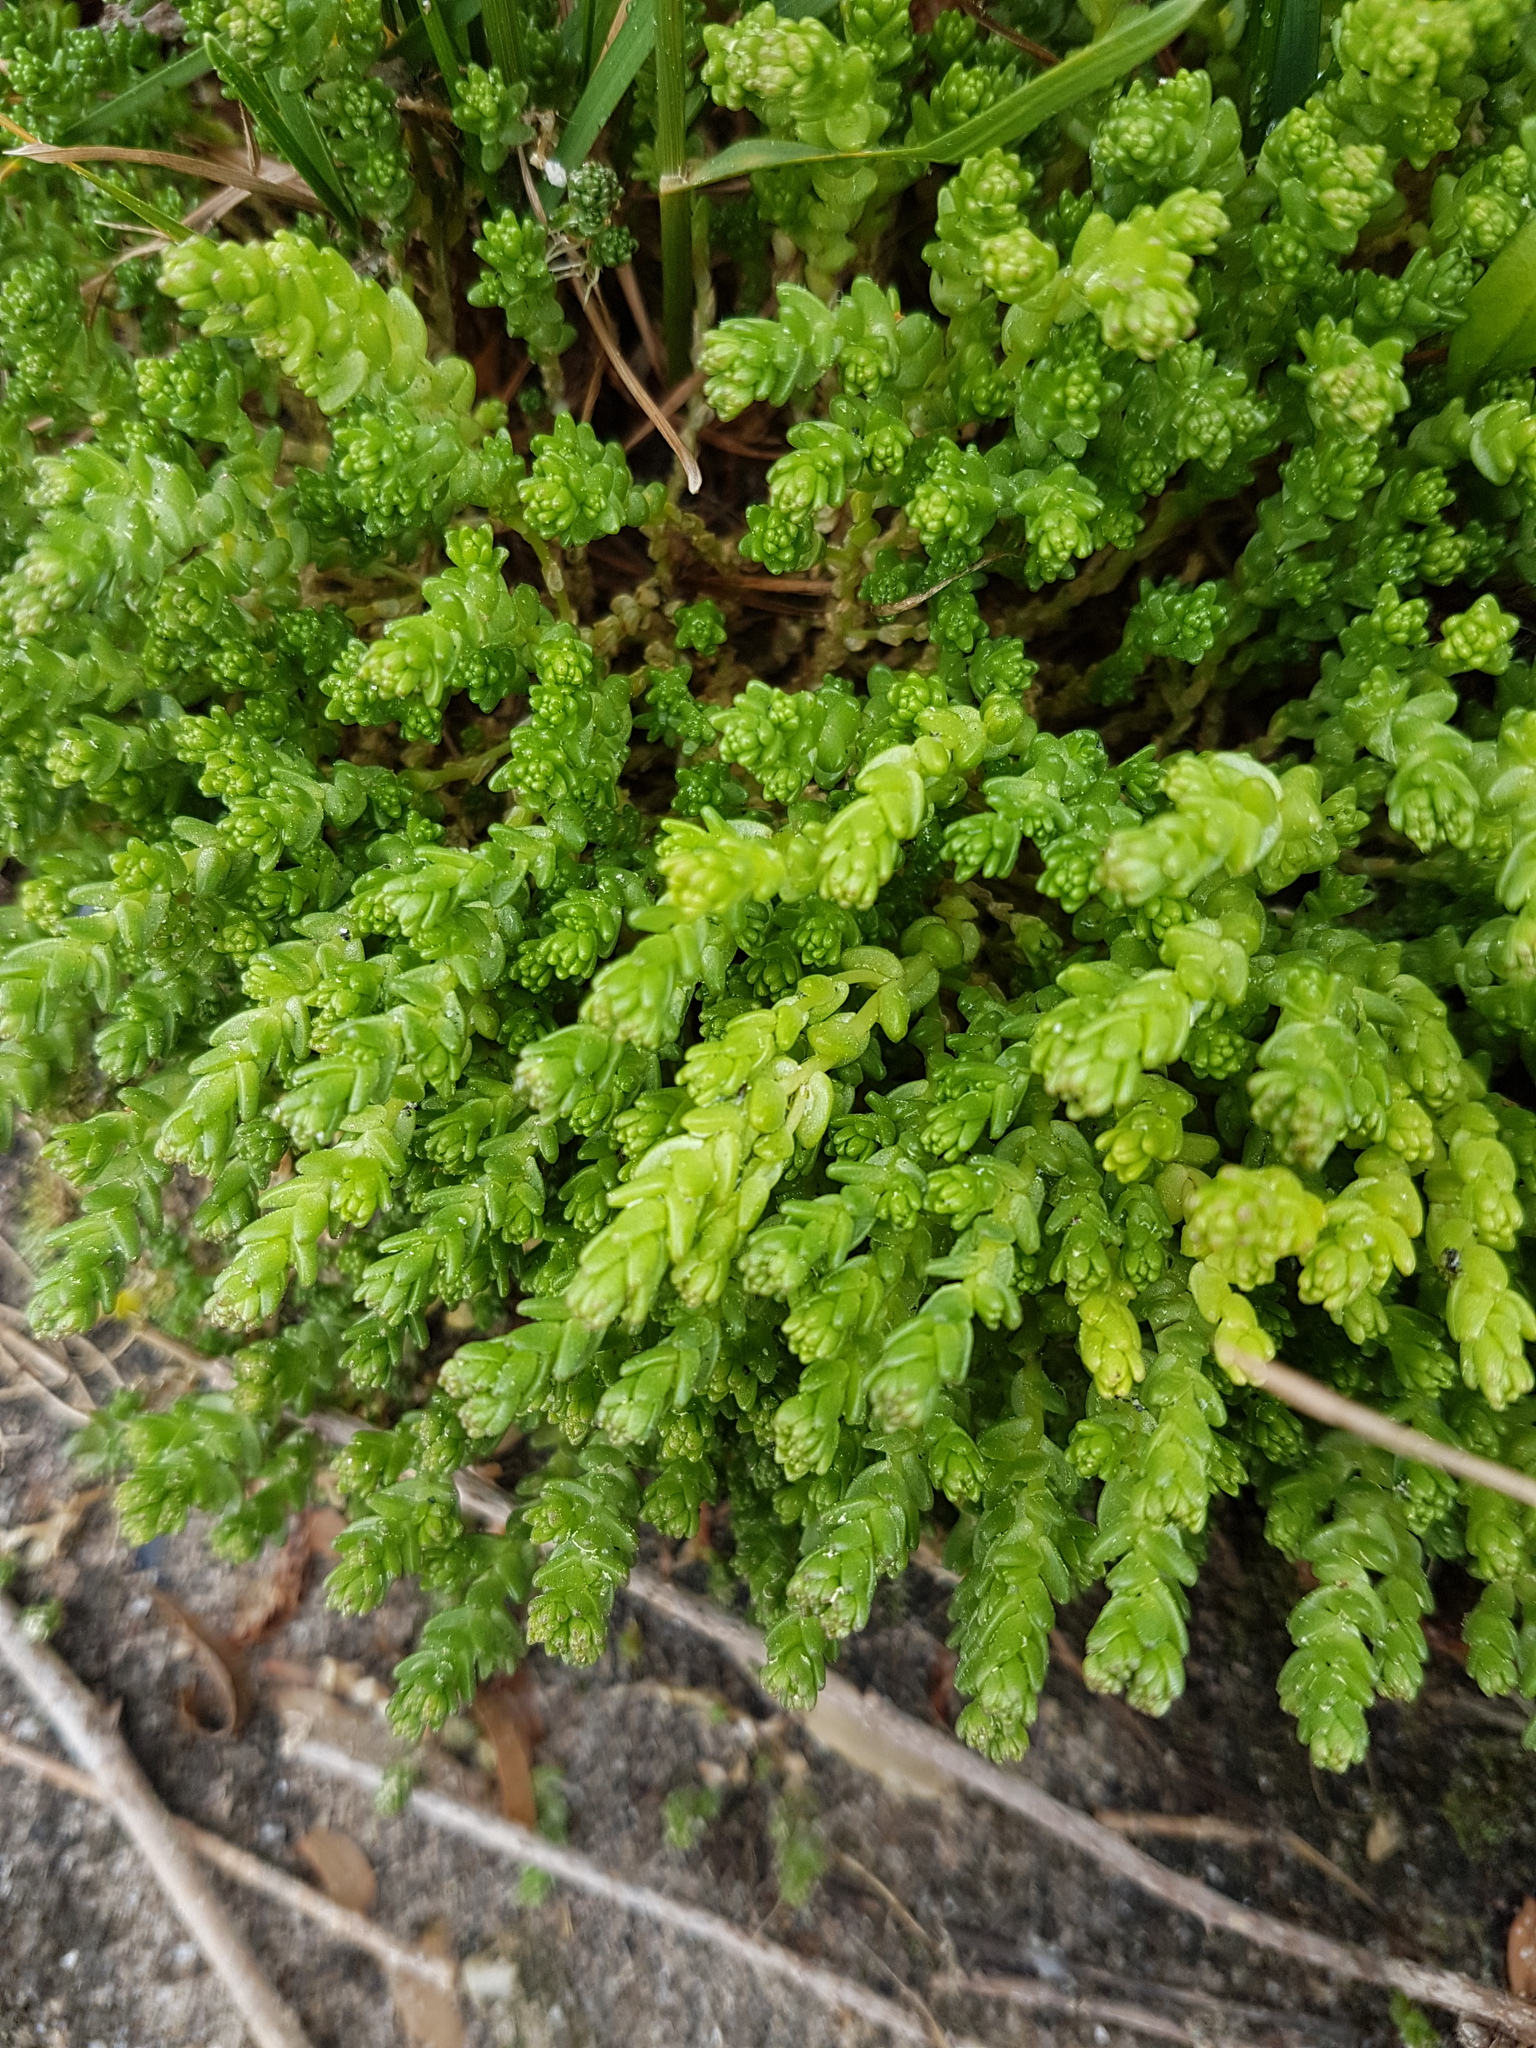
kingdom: Plantae
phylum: Tracheophyta
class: Magnoliopsida
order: Saxifragales
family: Crassulaceae
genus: Sedum
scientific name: Sedum acre
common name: Biting stonecrop
